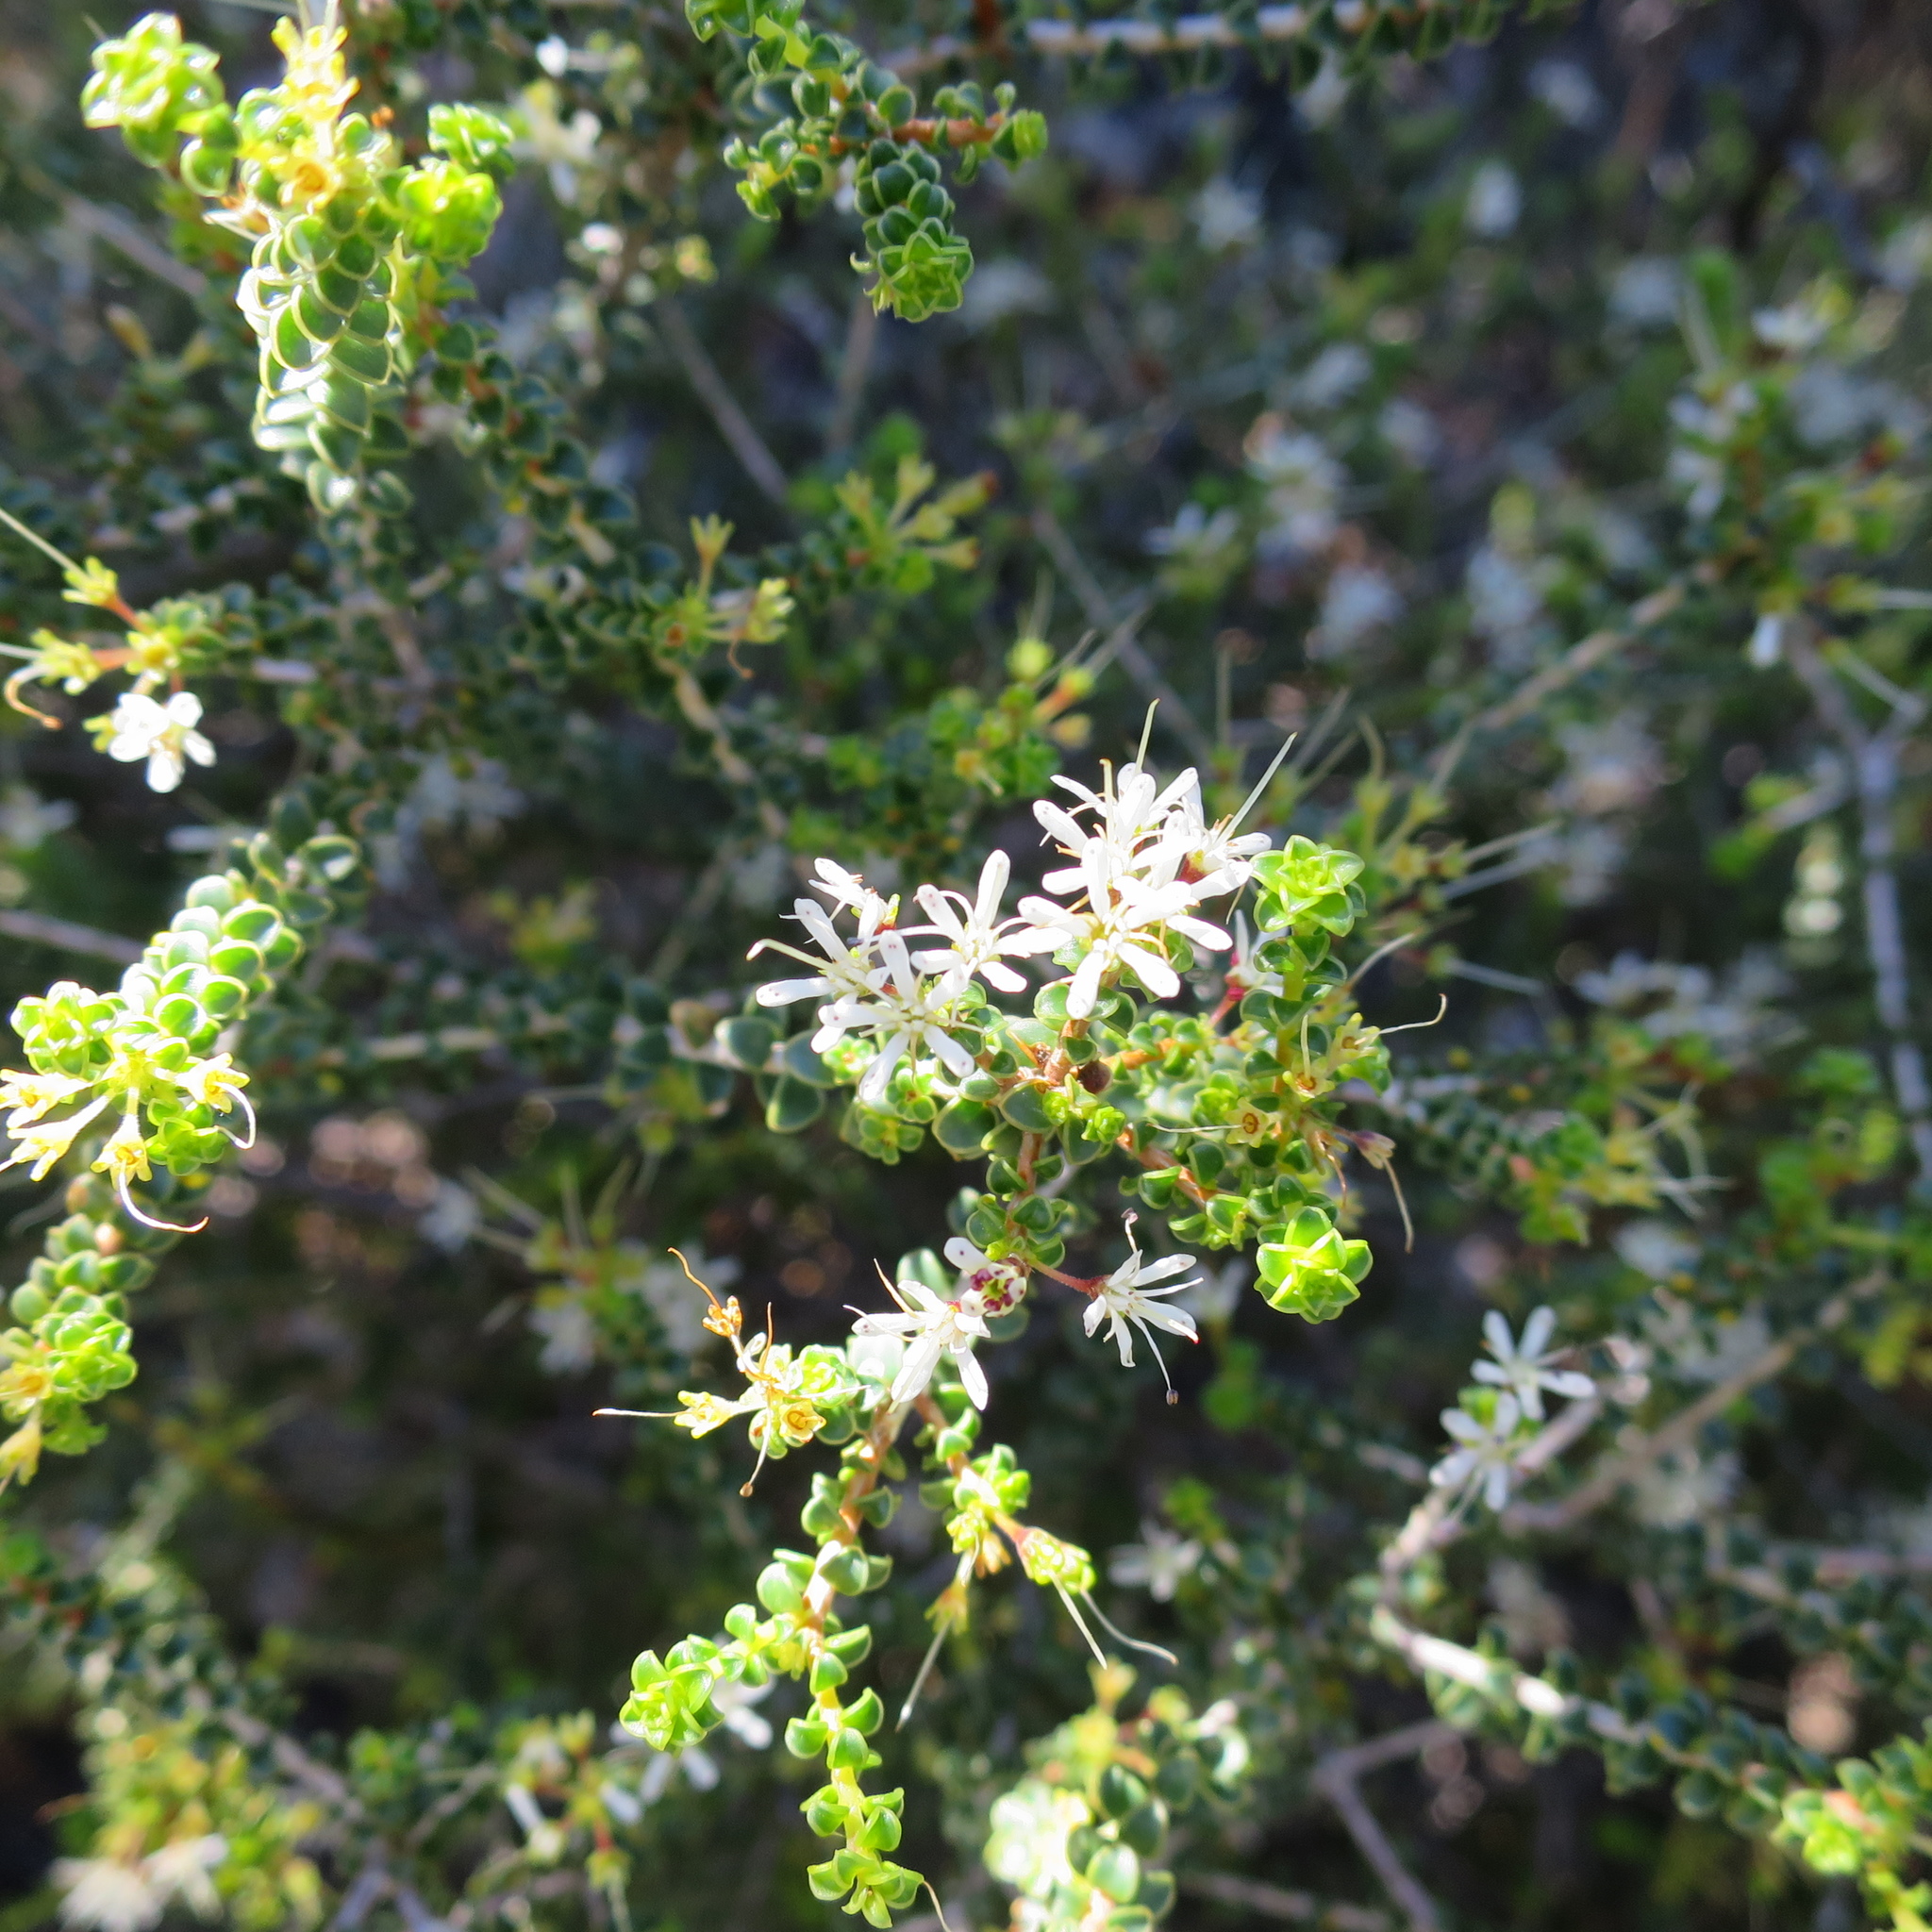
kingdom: Plantae
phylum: Tracheophyta
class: Magnoliopsida
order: Sapindales
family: Rutaceae
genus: Agathosma
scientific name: Agathosma recurvifolia
